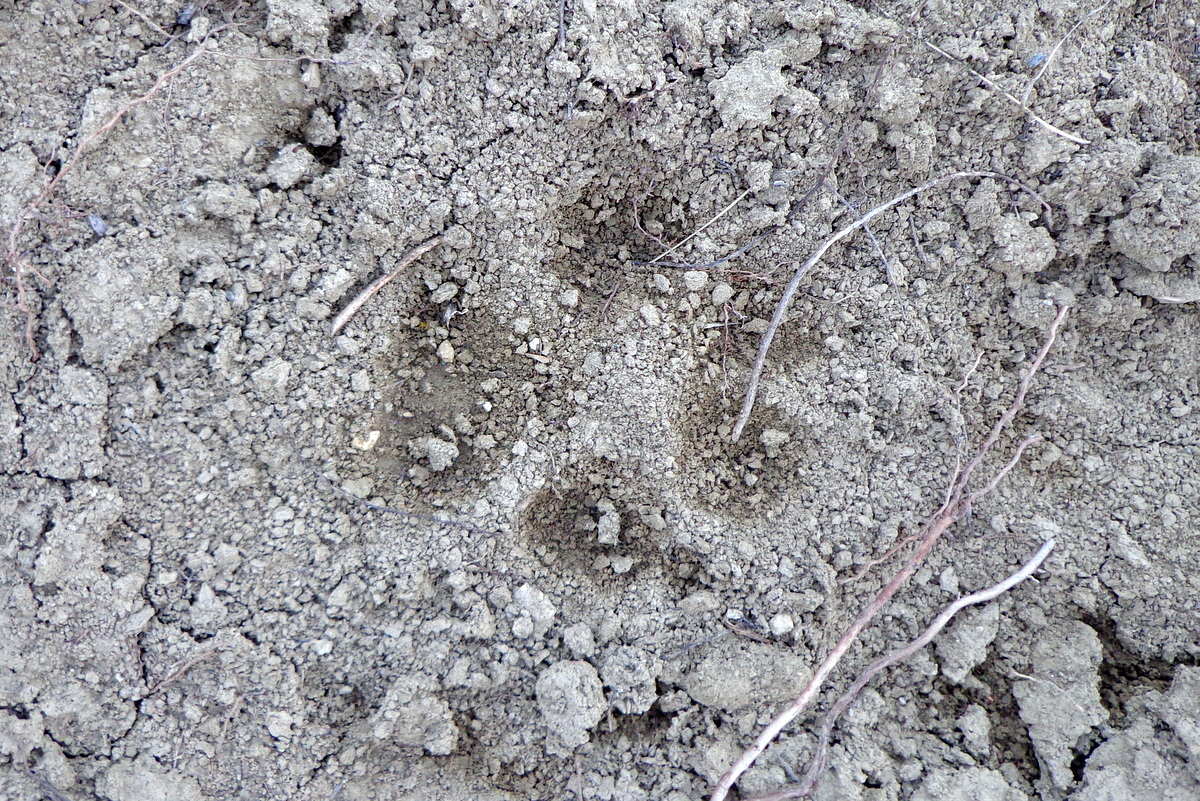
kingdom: Animalia
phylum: Chordata
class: Mammalia
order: Carnivora
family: Canidae
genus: Canis
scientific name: Canis lupus
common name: Gray wolf
